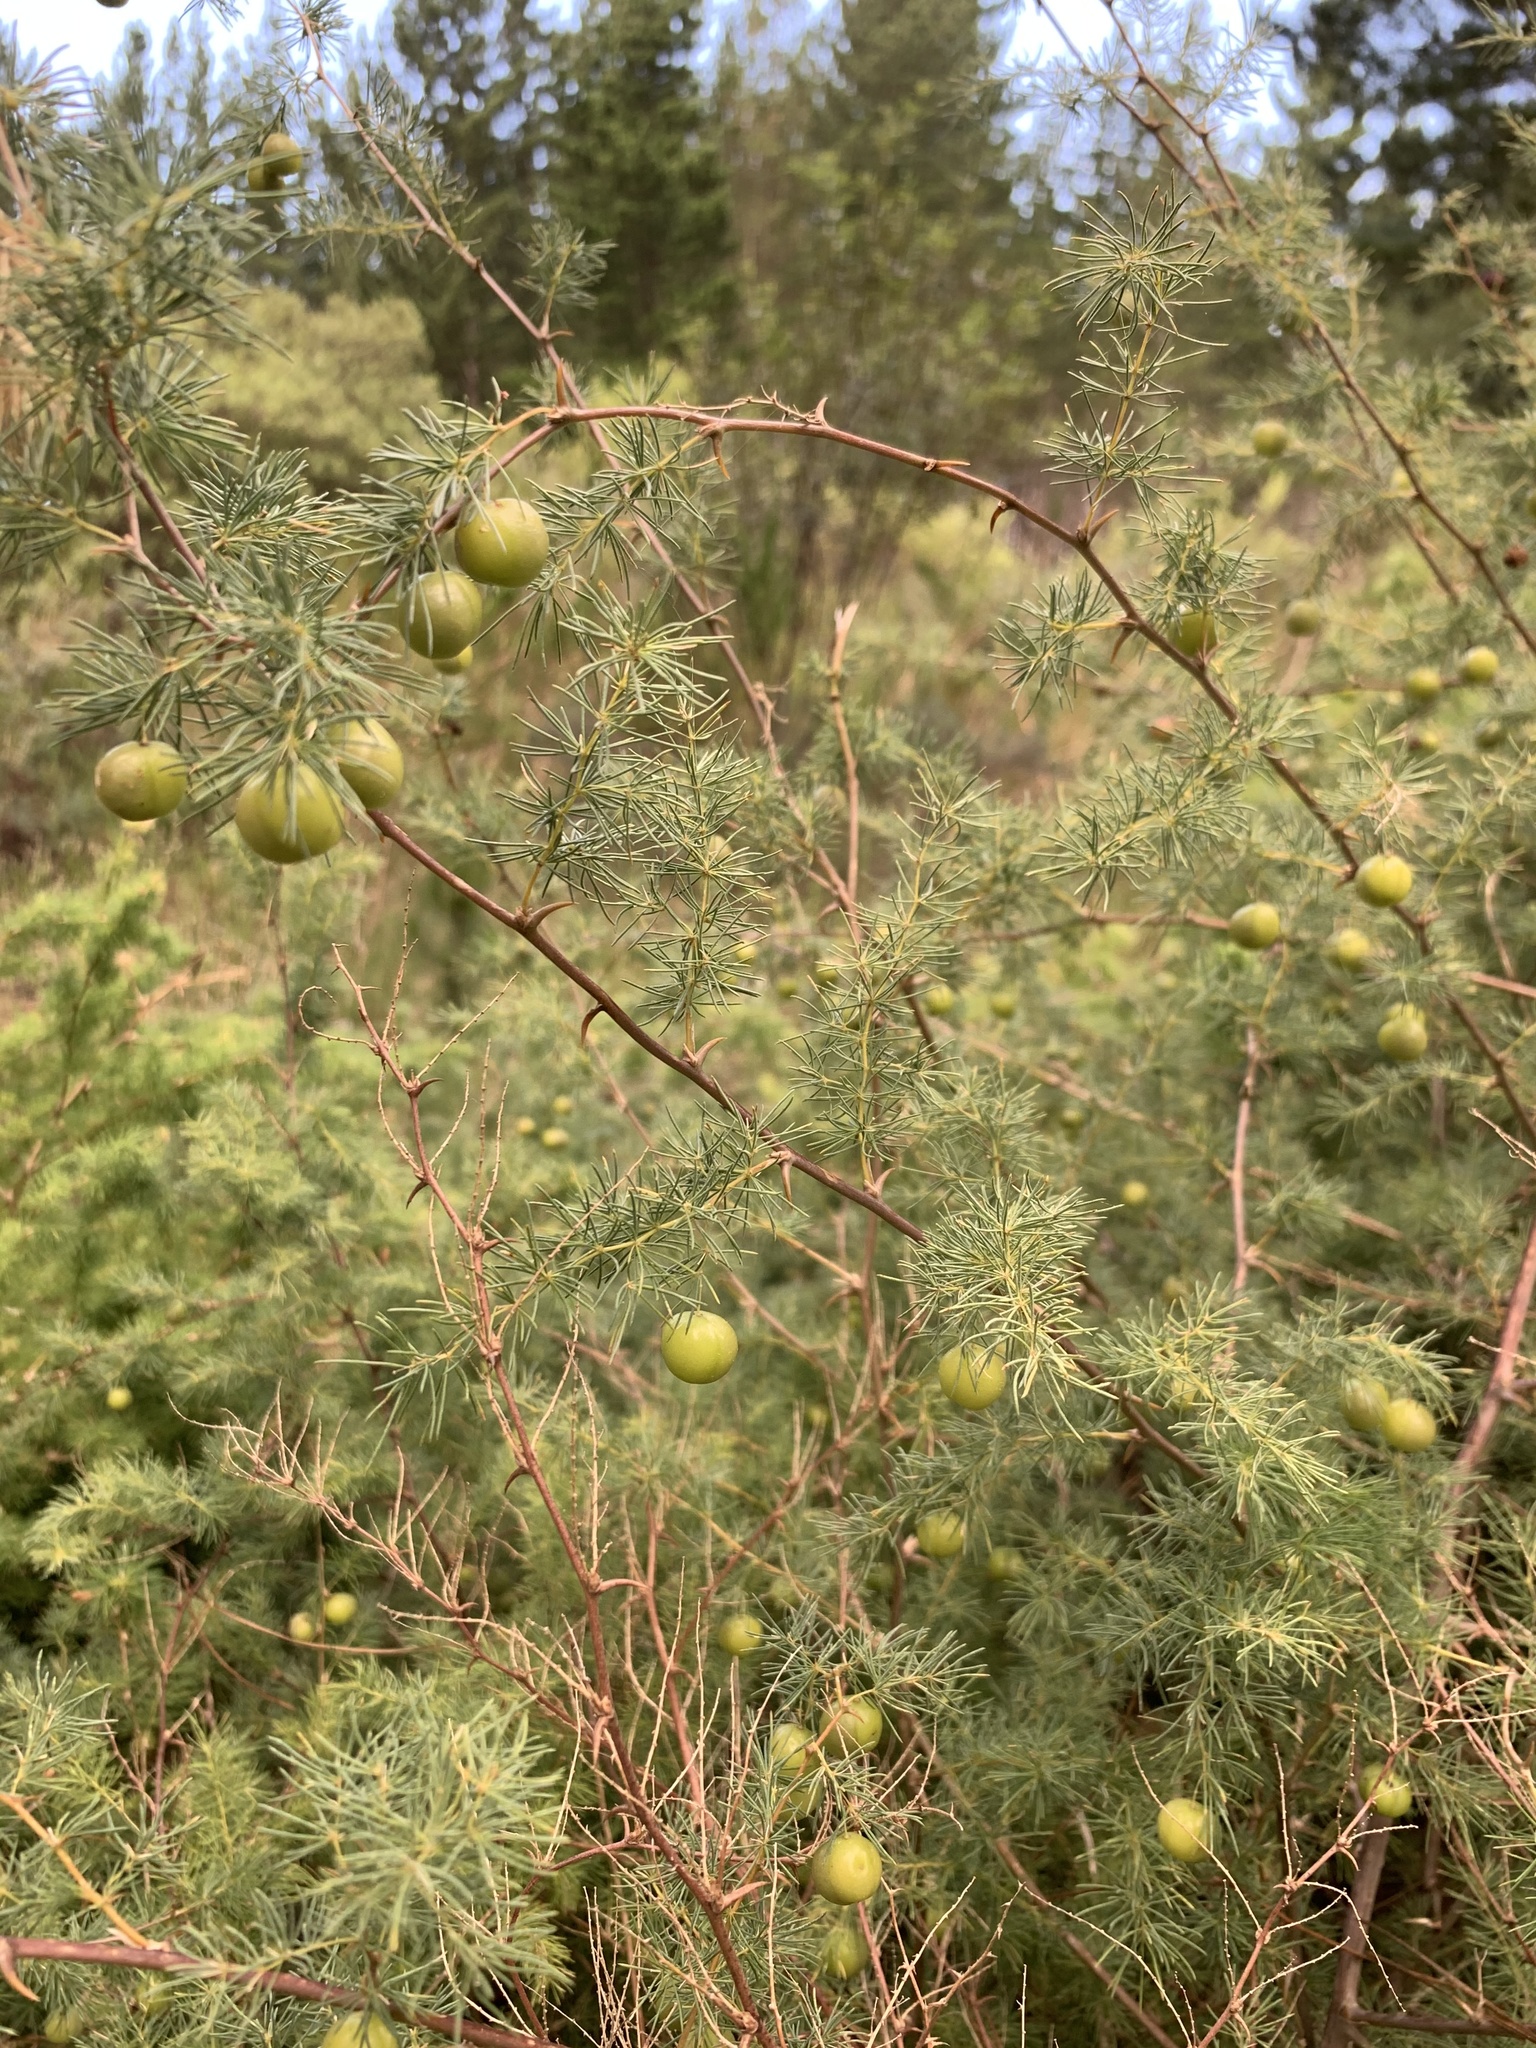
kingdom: Plantae
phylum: Tracheophyta
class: Liliopsida
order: Asparagales
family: Asparagaceae
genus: Asparagus
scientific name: Asparagus rubicundus
